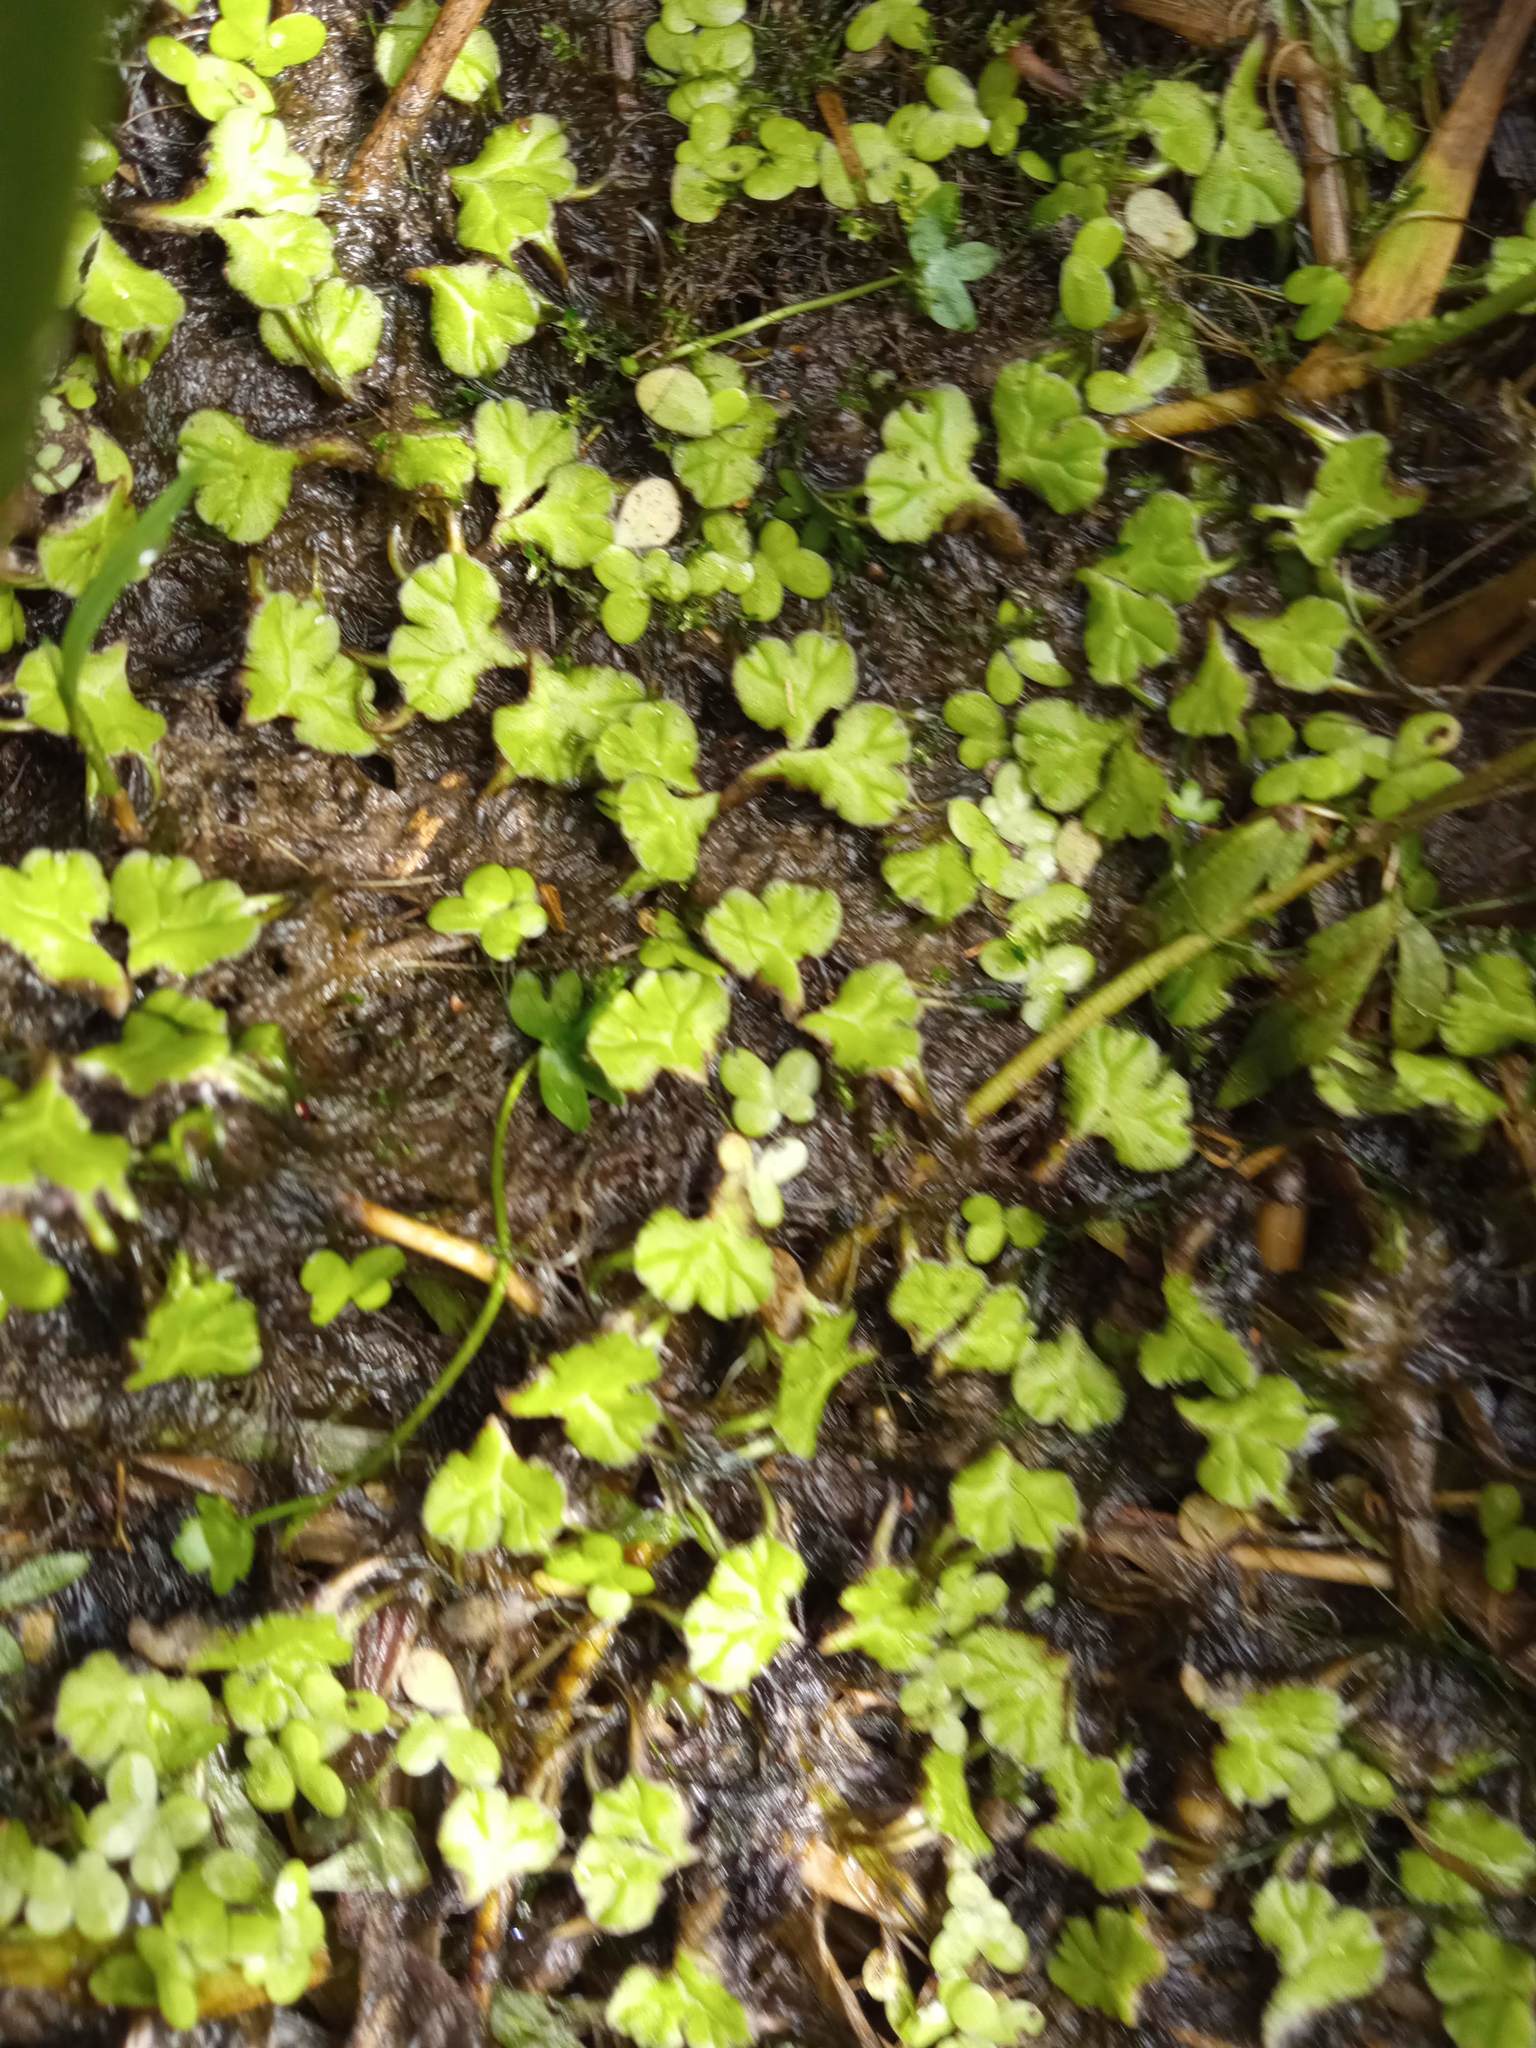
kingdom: Plantae
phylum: Marchantiophyta
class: Marchantiopsida
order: Marchantiales
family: Ricciaceae
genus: Ricciocarpos
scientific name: Ricciocarpos natans
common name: Purple-fringed liverwort
